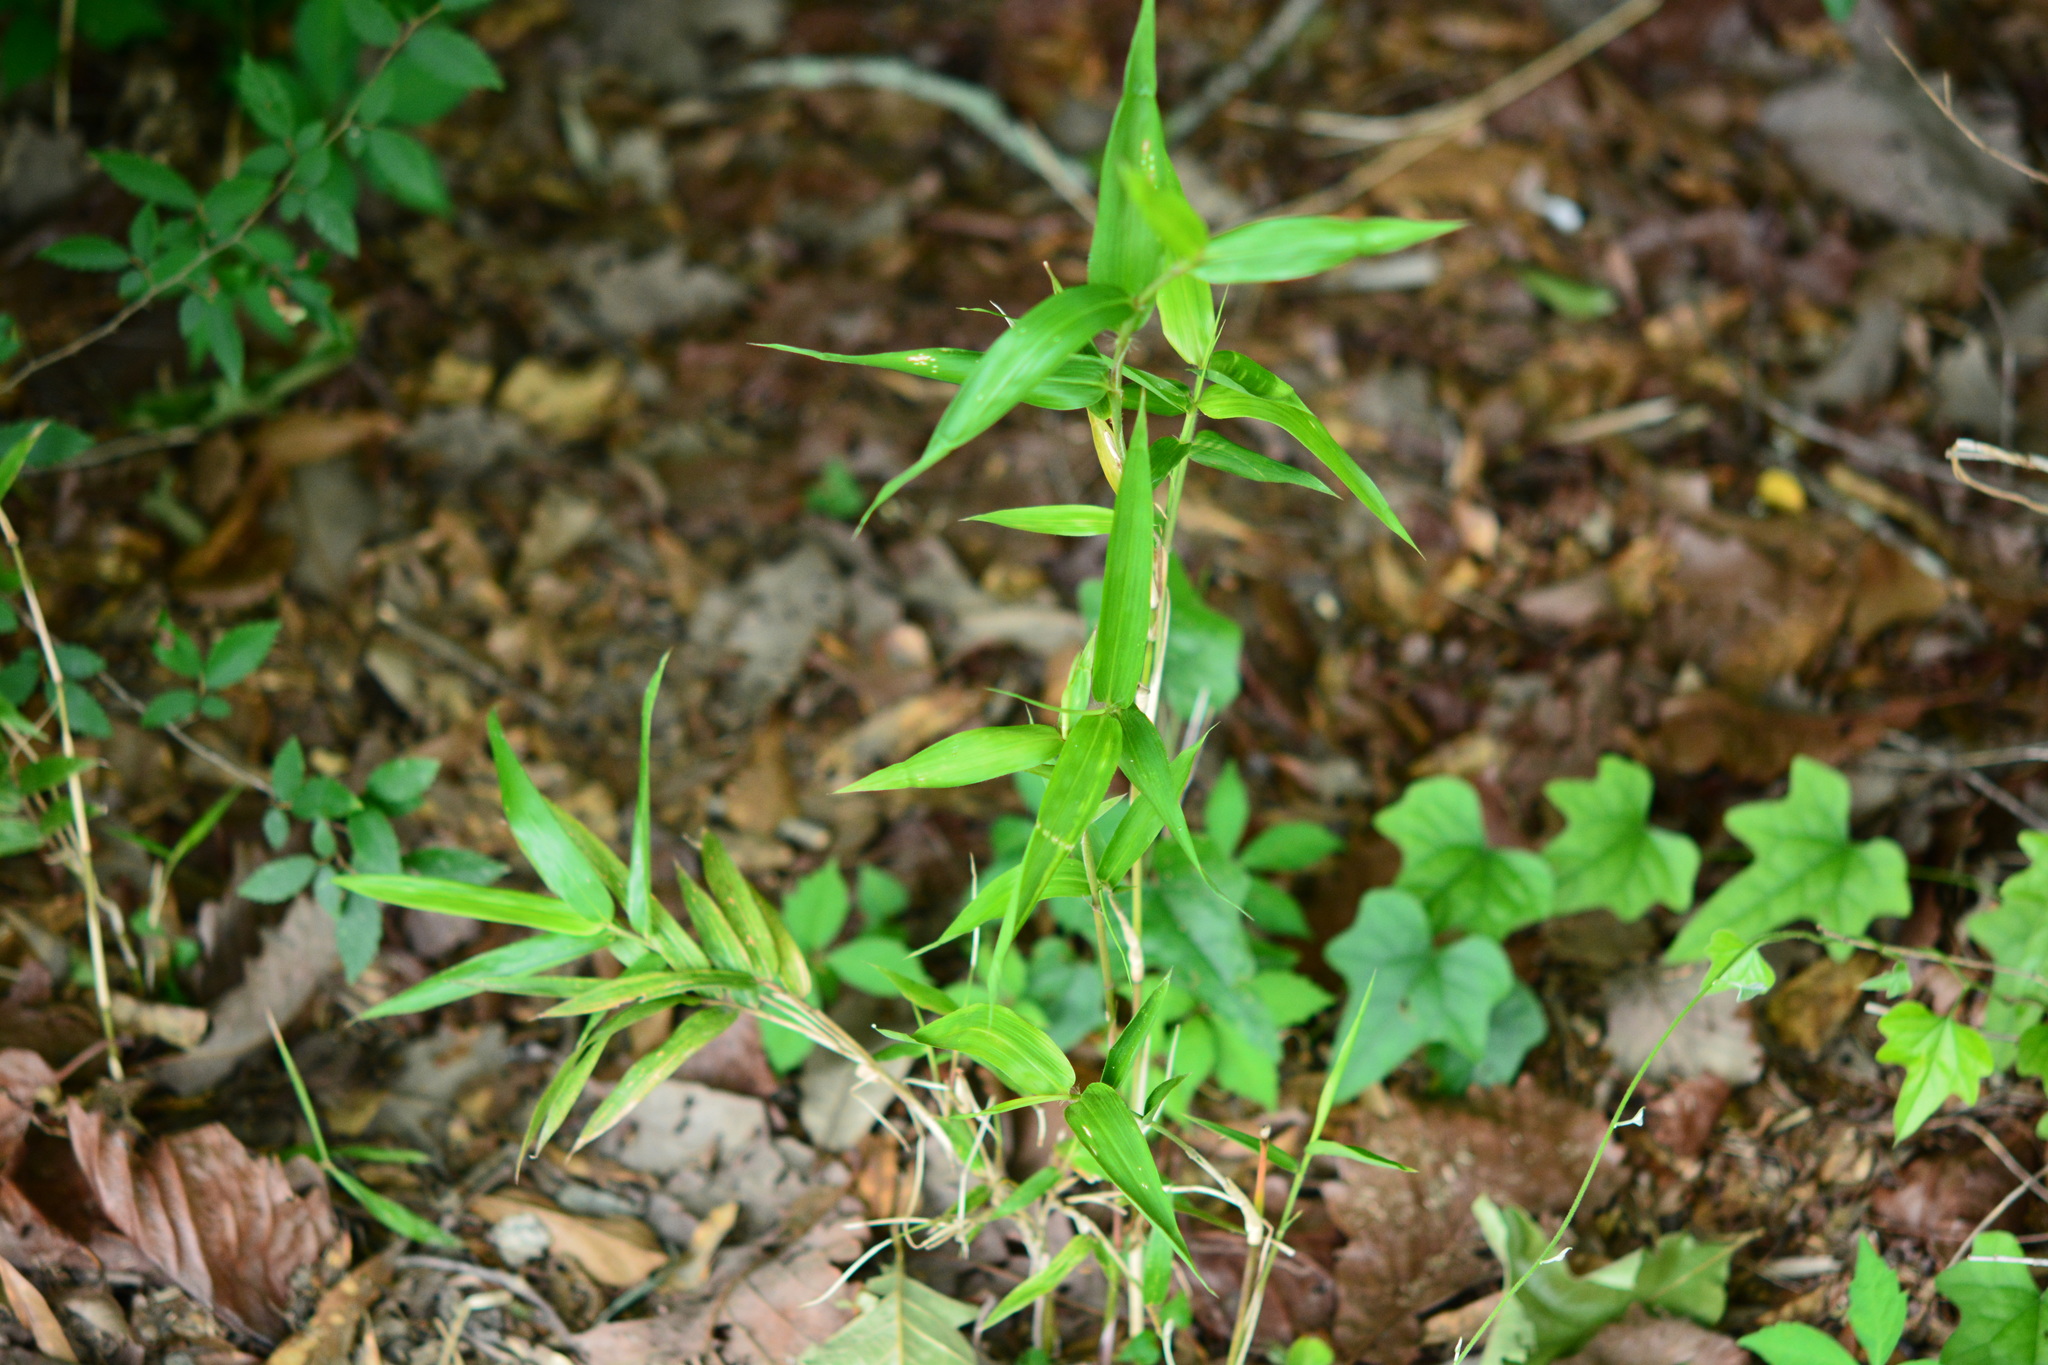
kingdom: Plantae
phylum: Tracheophyta
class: Liliopsida
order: Poales
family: Poaceae
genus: Arundinaria
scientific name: Arundinaria gigantea
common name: Giant cane
